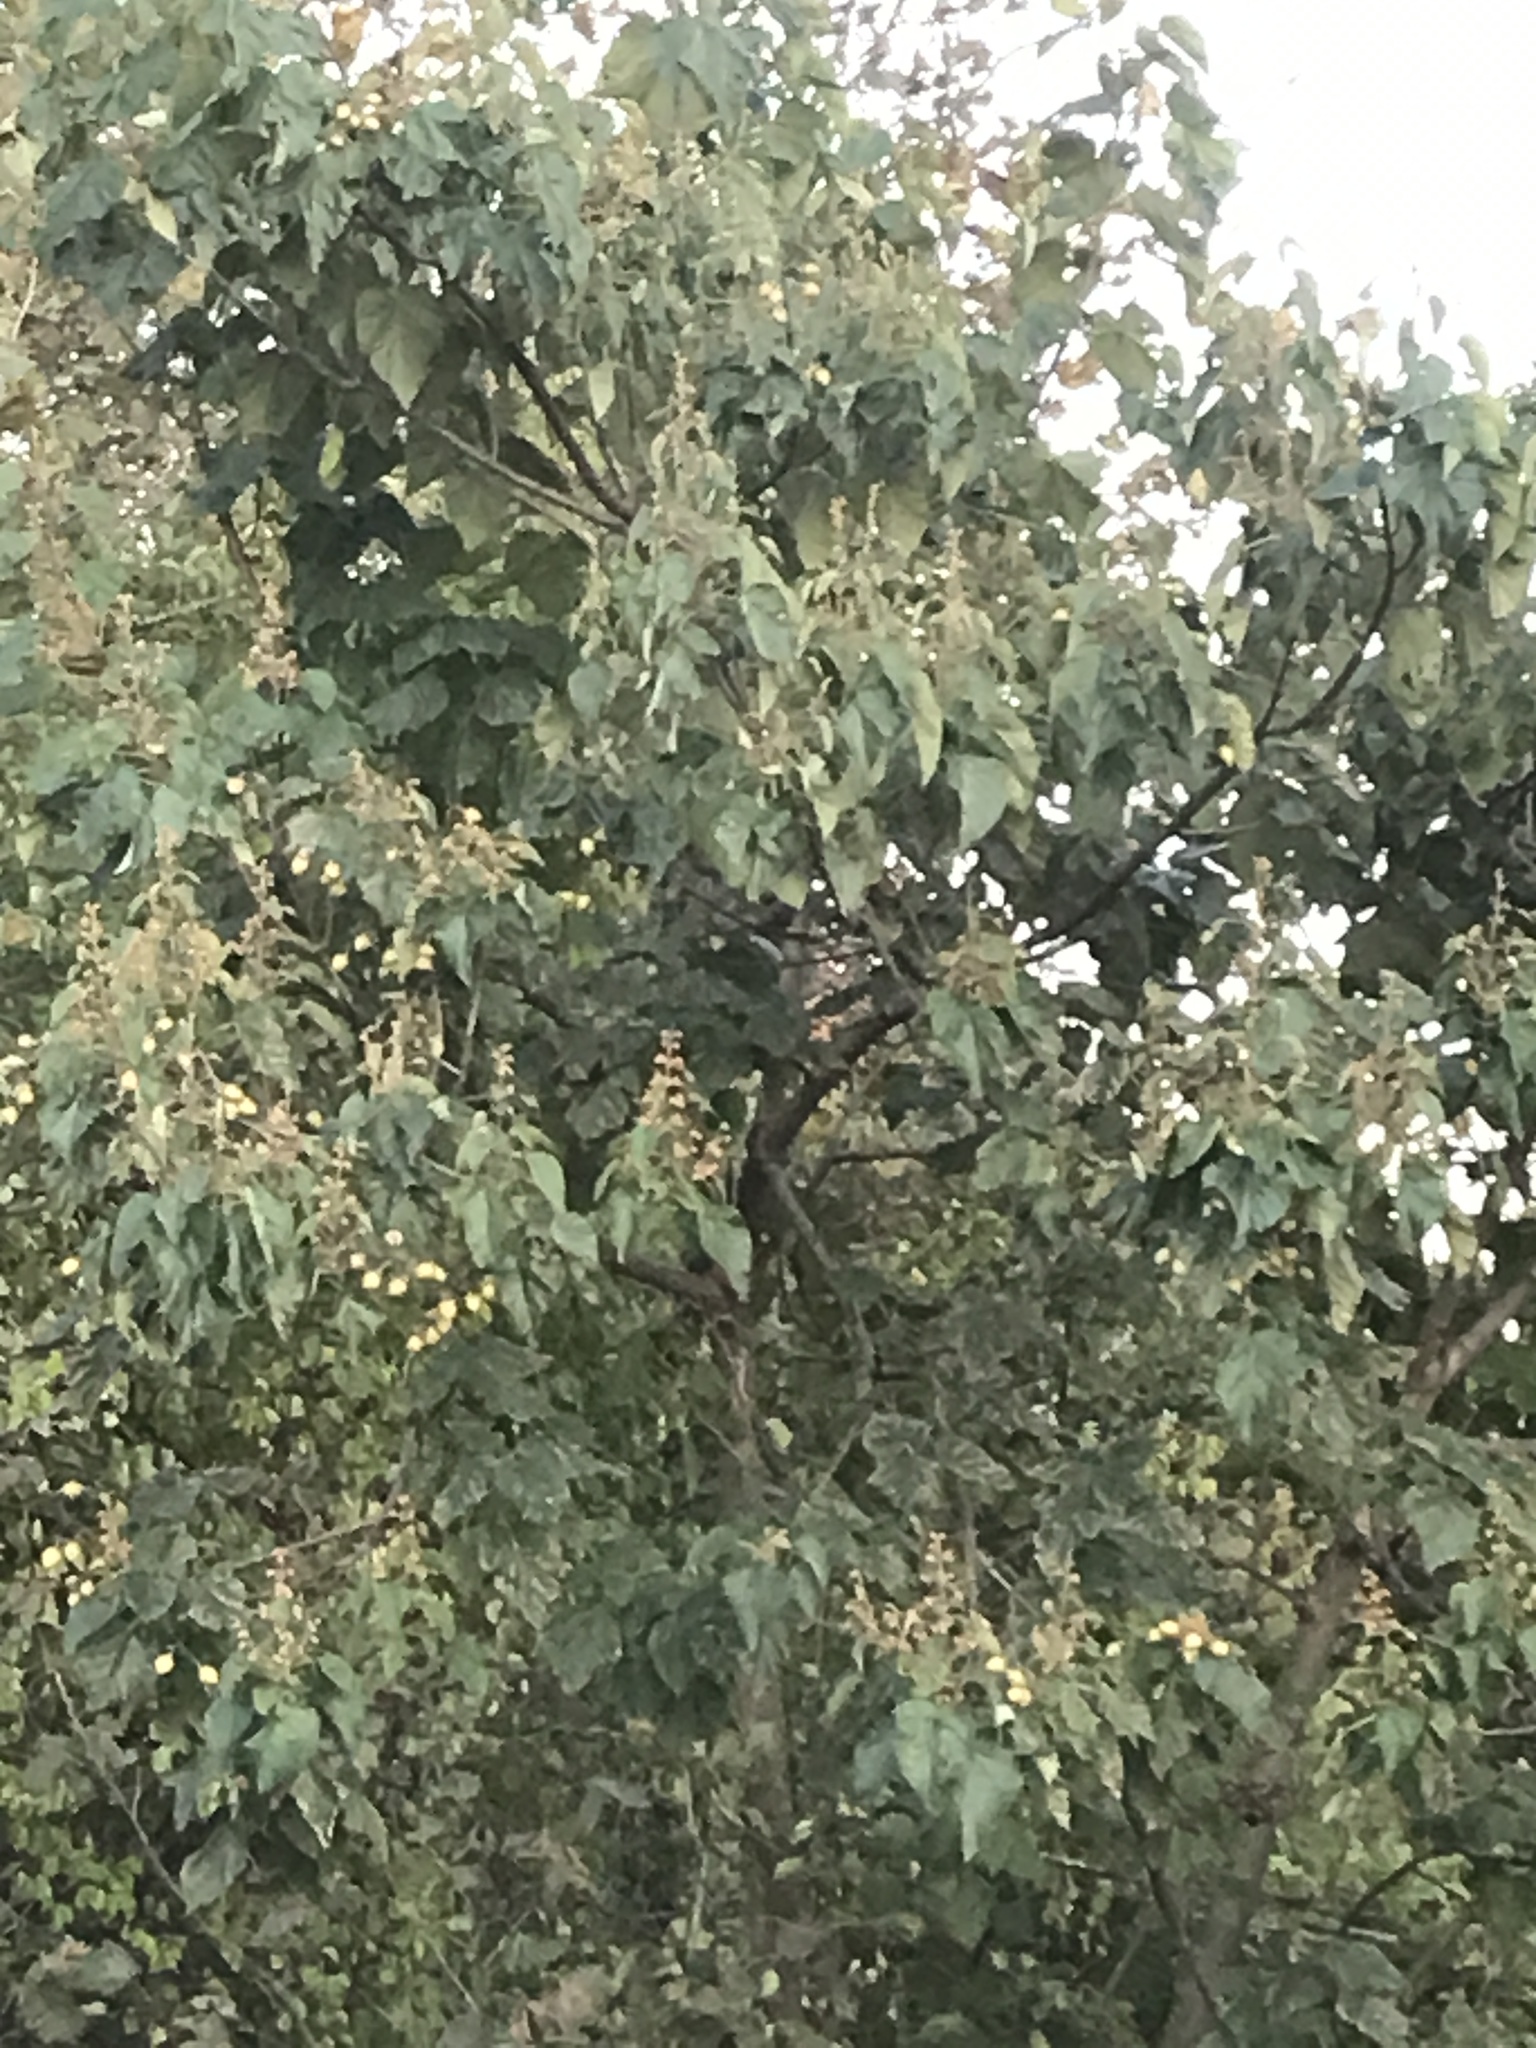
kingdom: Plantae
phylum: Tracheophyta
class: Magnoliopsida
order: Lamiales
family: Paulowniaceae
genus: Paulownia
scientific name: Paulownia tomentosa
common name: Foxglove-tree
